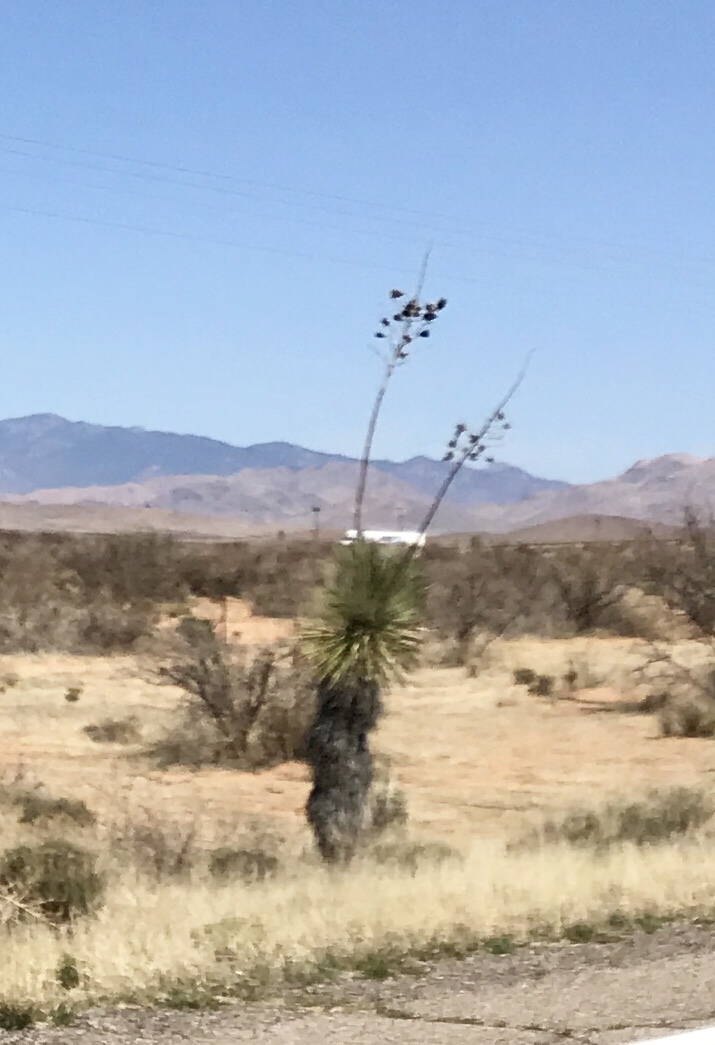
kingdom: Plantae
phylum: Tracheophyta
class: Liliopsida
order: Asparagales
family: Asparagaceae
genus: Yucca
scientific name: Yucca elata
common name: Palmella
